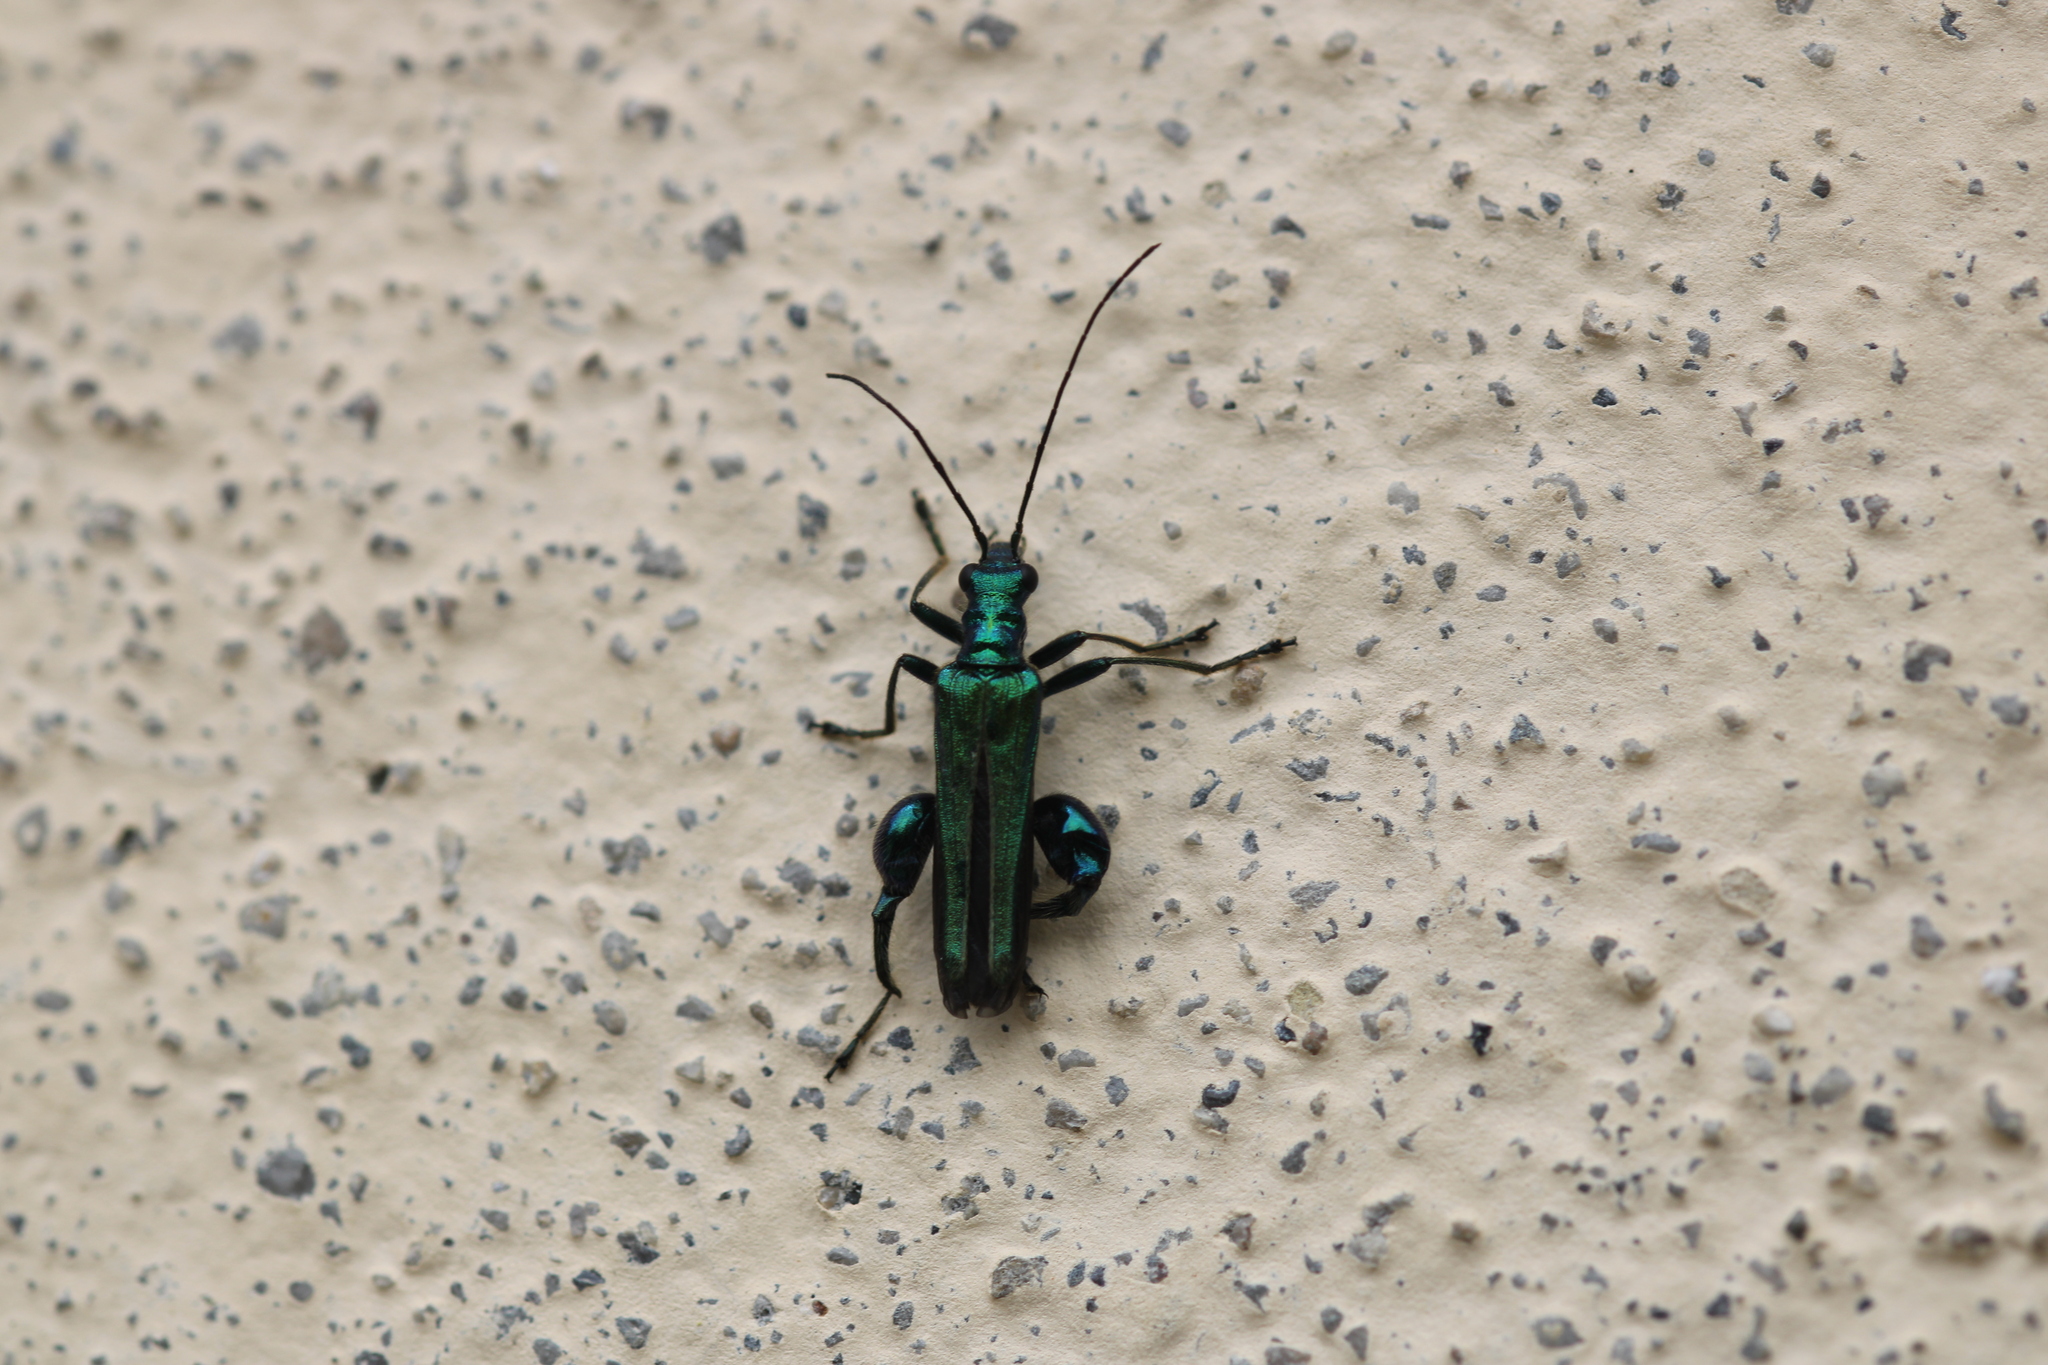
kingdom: Animalia
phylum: Arthropoda
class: Insecta
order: Coleoptera
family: Oedemeridae
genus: Oedemera
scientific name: Oedemera nobilis
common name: Swollen-thighed beetle
